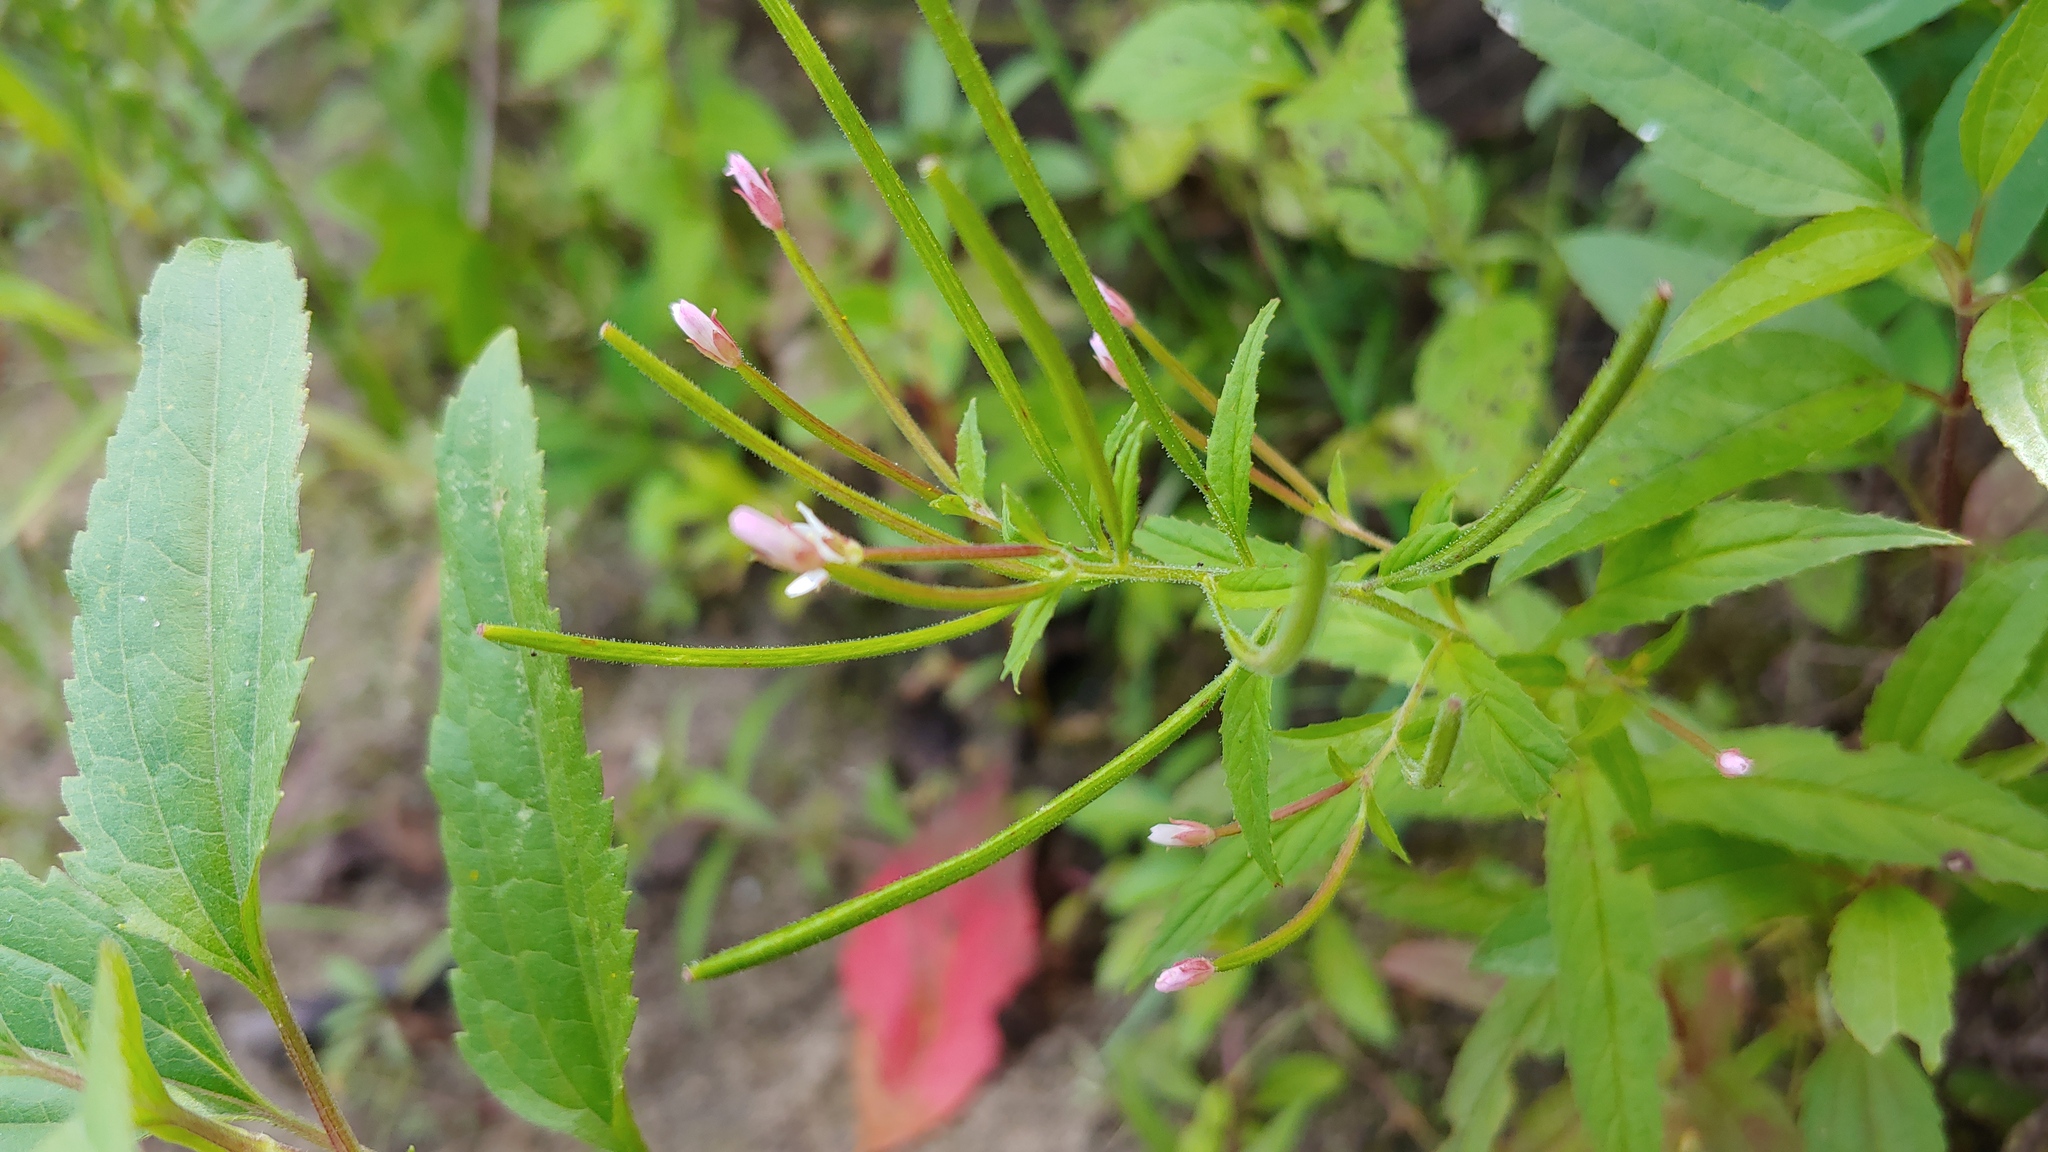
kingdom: Plantae
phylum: Tracheophyta
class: Magnoliopsida
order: Myrtales
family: Onagraceae
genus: Epilobium
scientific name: Epilobium coloratum
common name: Bronze willowherb
